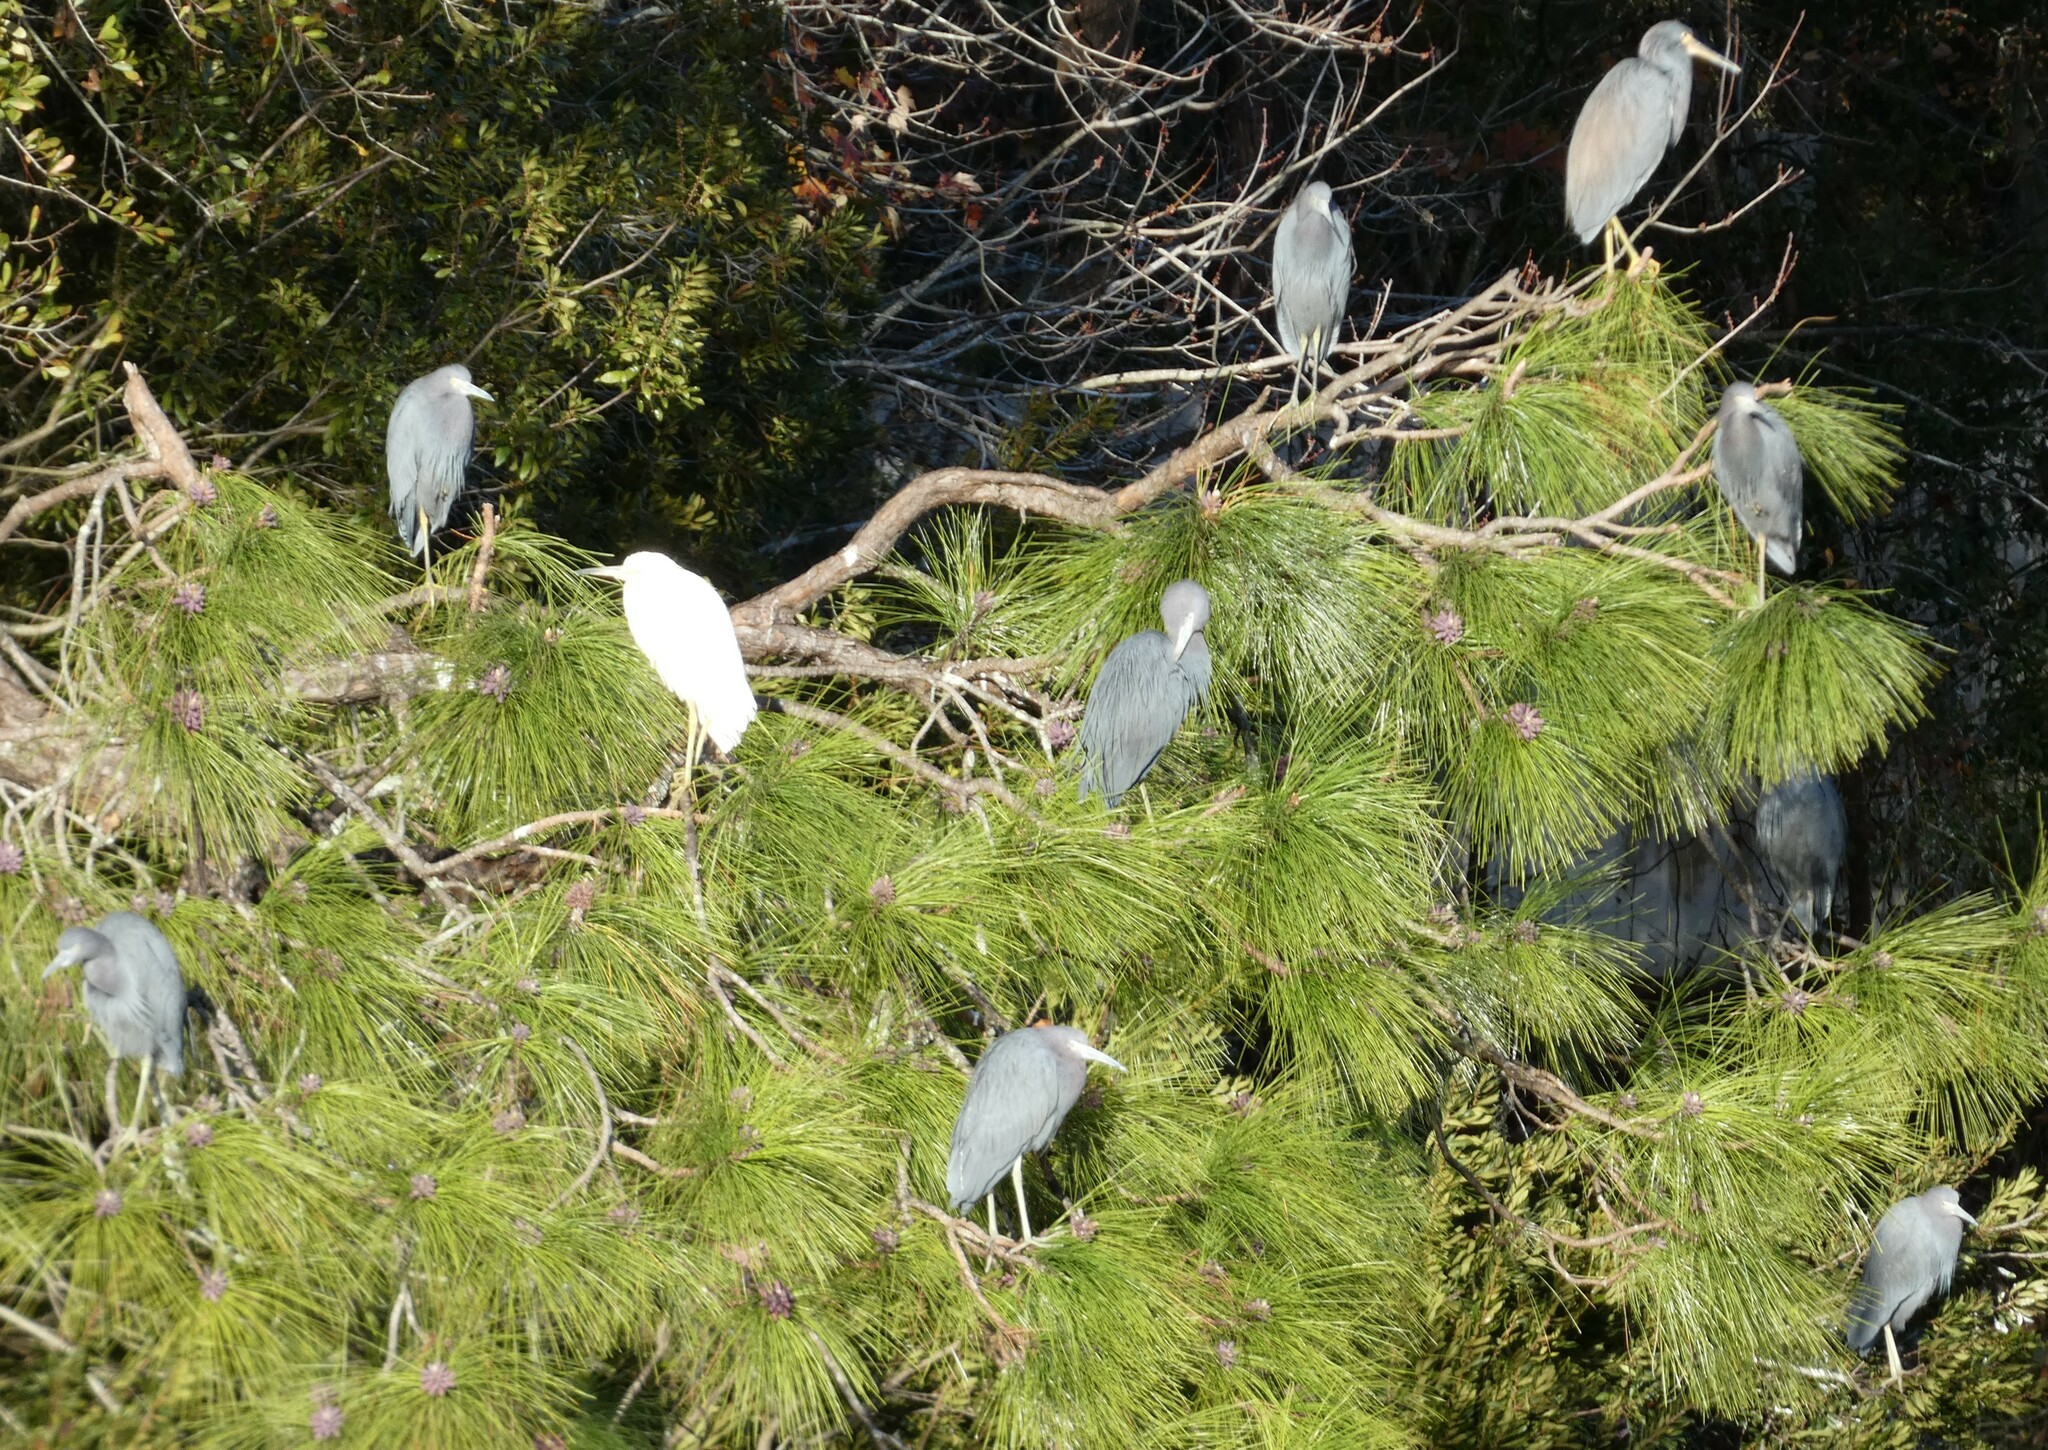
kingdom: Animalia
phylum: Chordata
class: Aves
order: Pelecaniformes
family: Ardeidae
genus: Egretta
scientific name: Egretta caerulea
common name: Little blue heron
